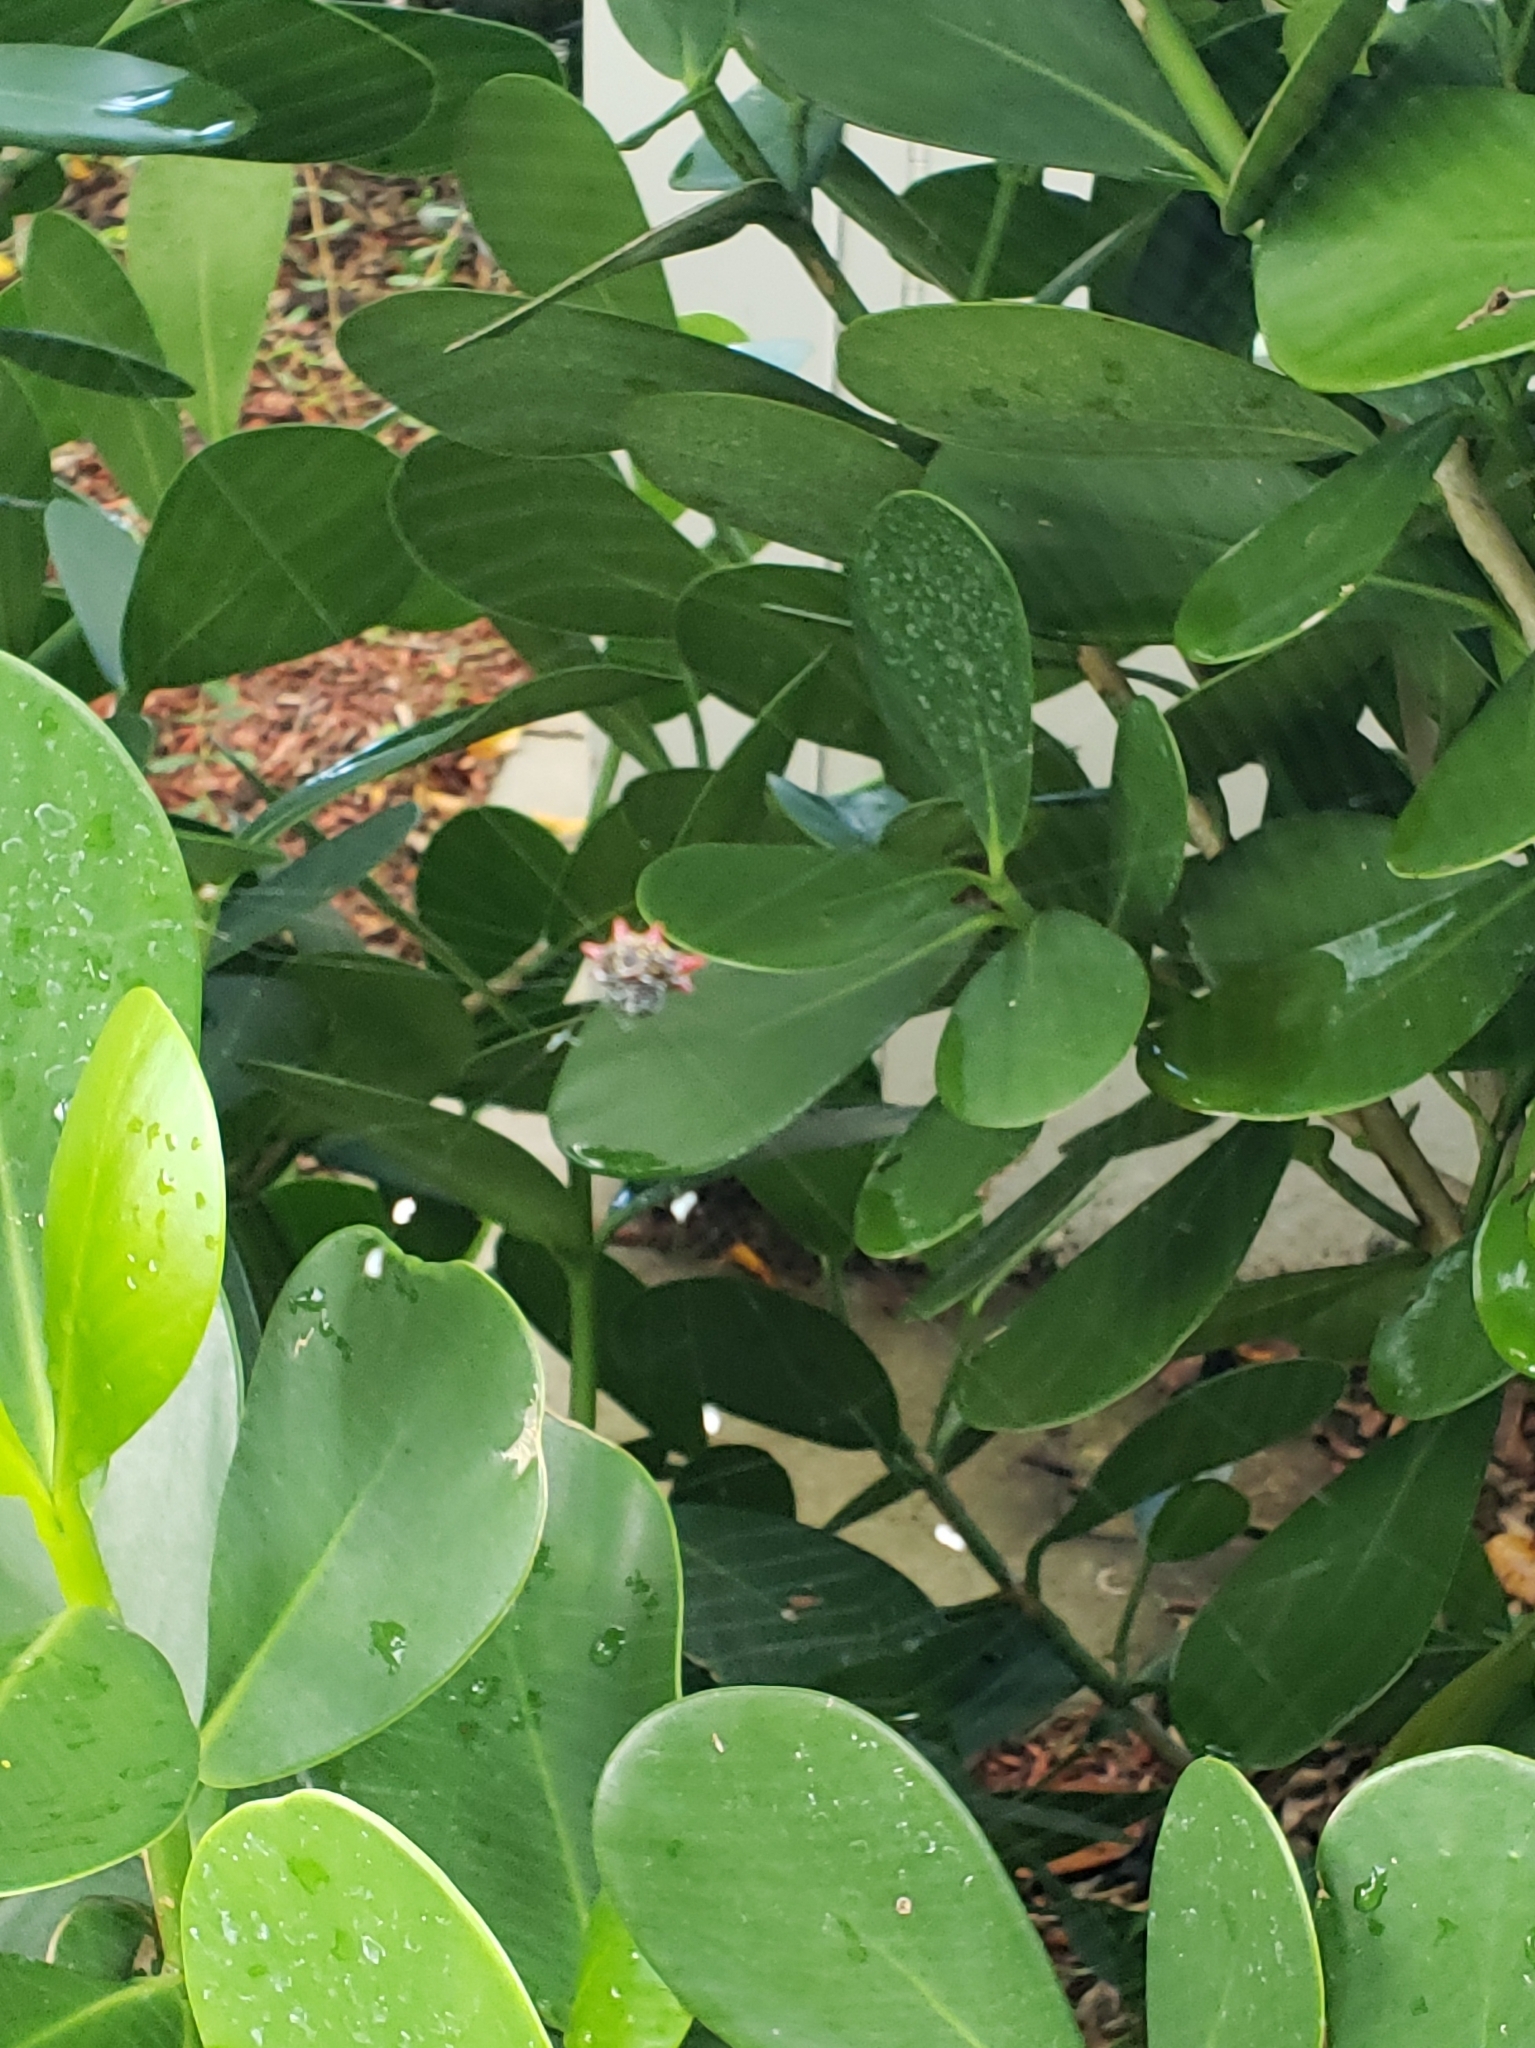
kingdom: Animalia
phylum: Arthropoda
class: Arachnida
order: Araneae
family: Araneidae
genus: Gasteracantha
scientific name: Gasteracantha cancriformis
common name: Orb weavers
